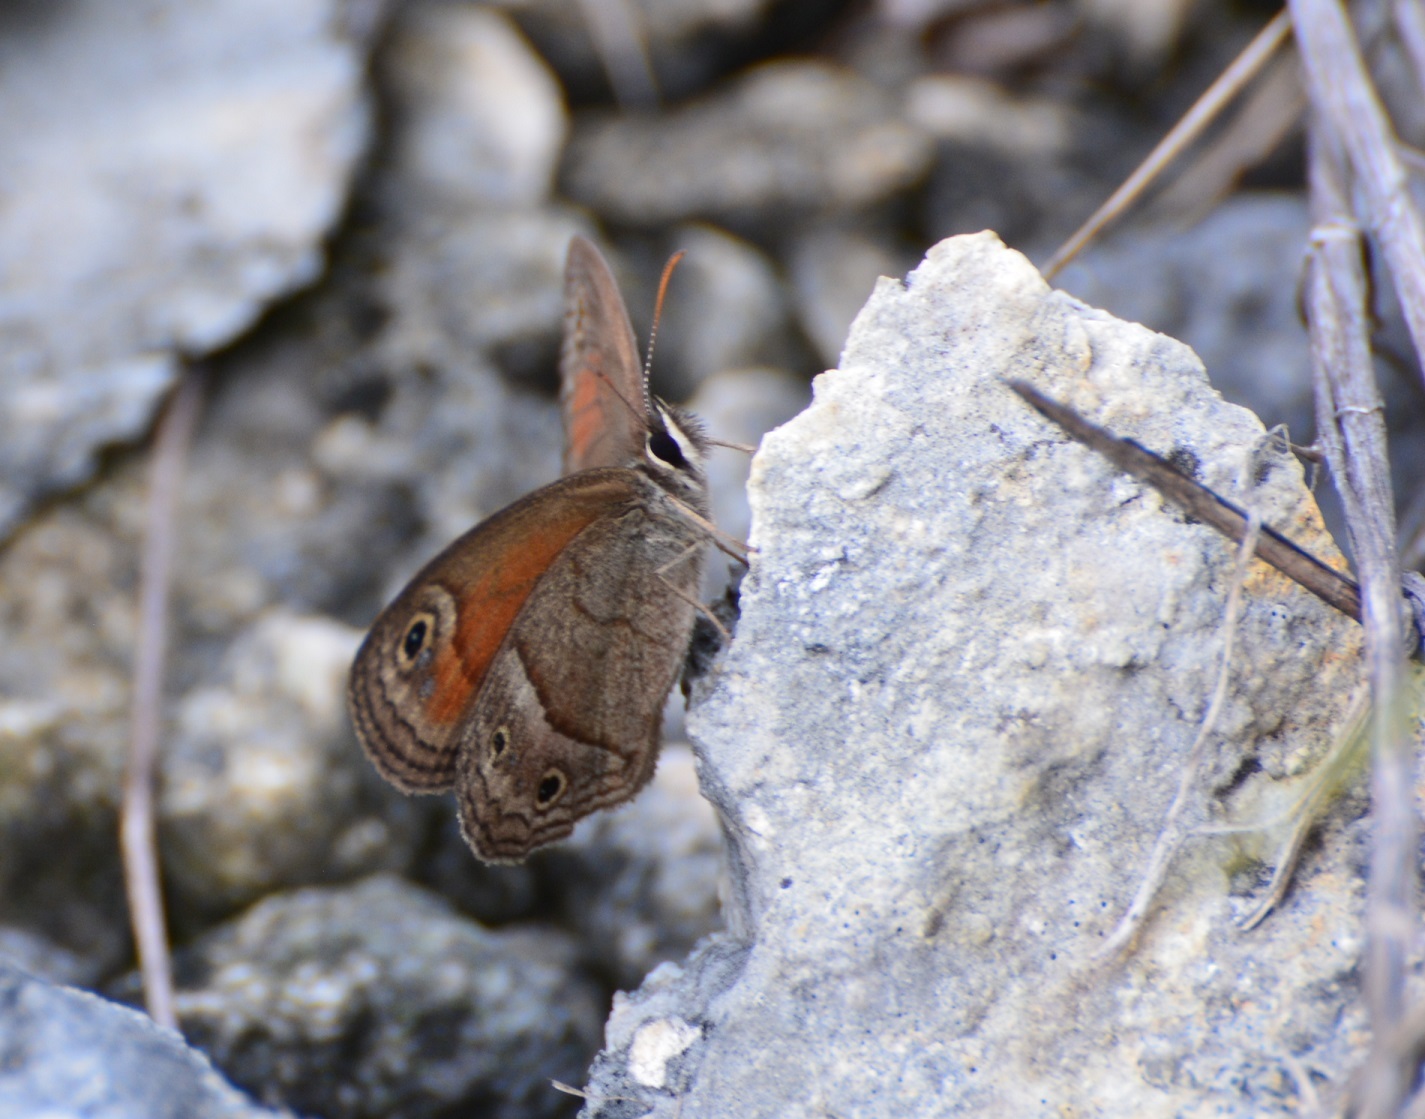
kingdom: Animalia
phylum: Arthropoda
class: Insecta
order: Lepidoptera
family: Nymphalidae
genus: Euptychia
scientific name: Euptychia
